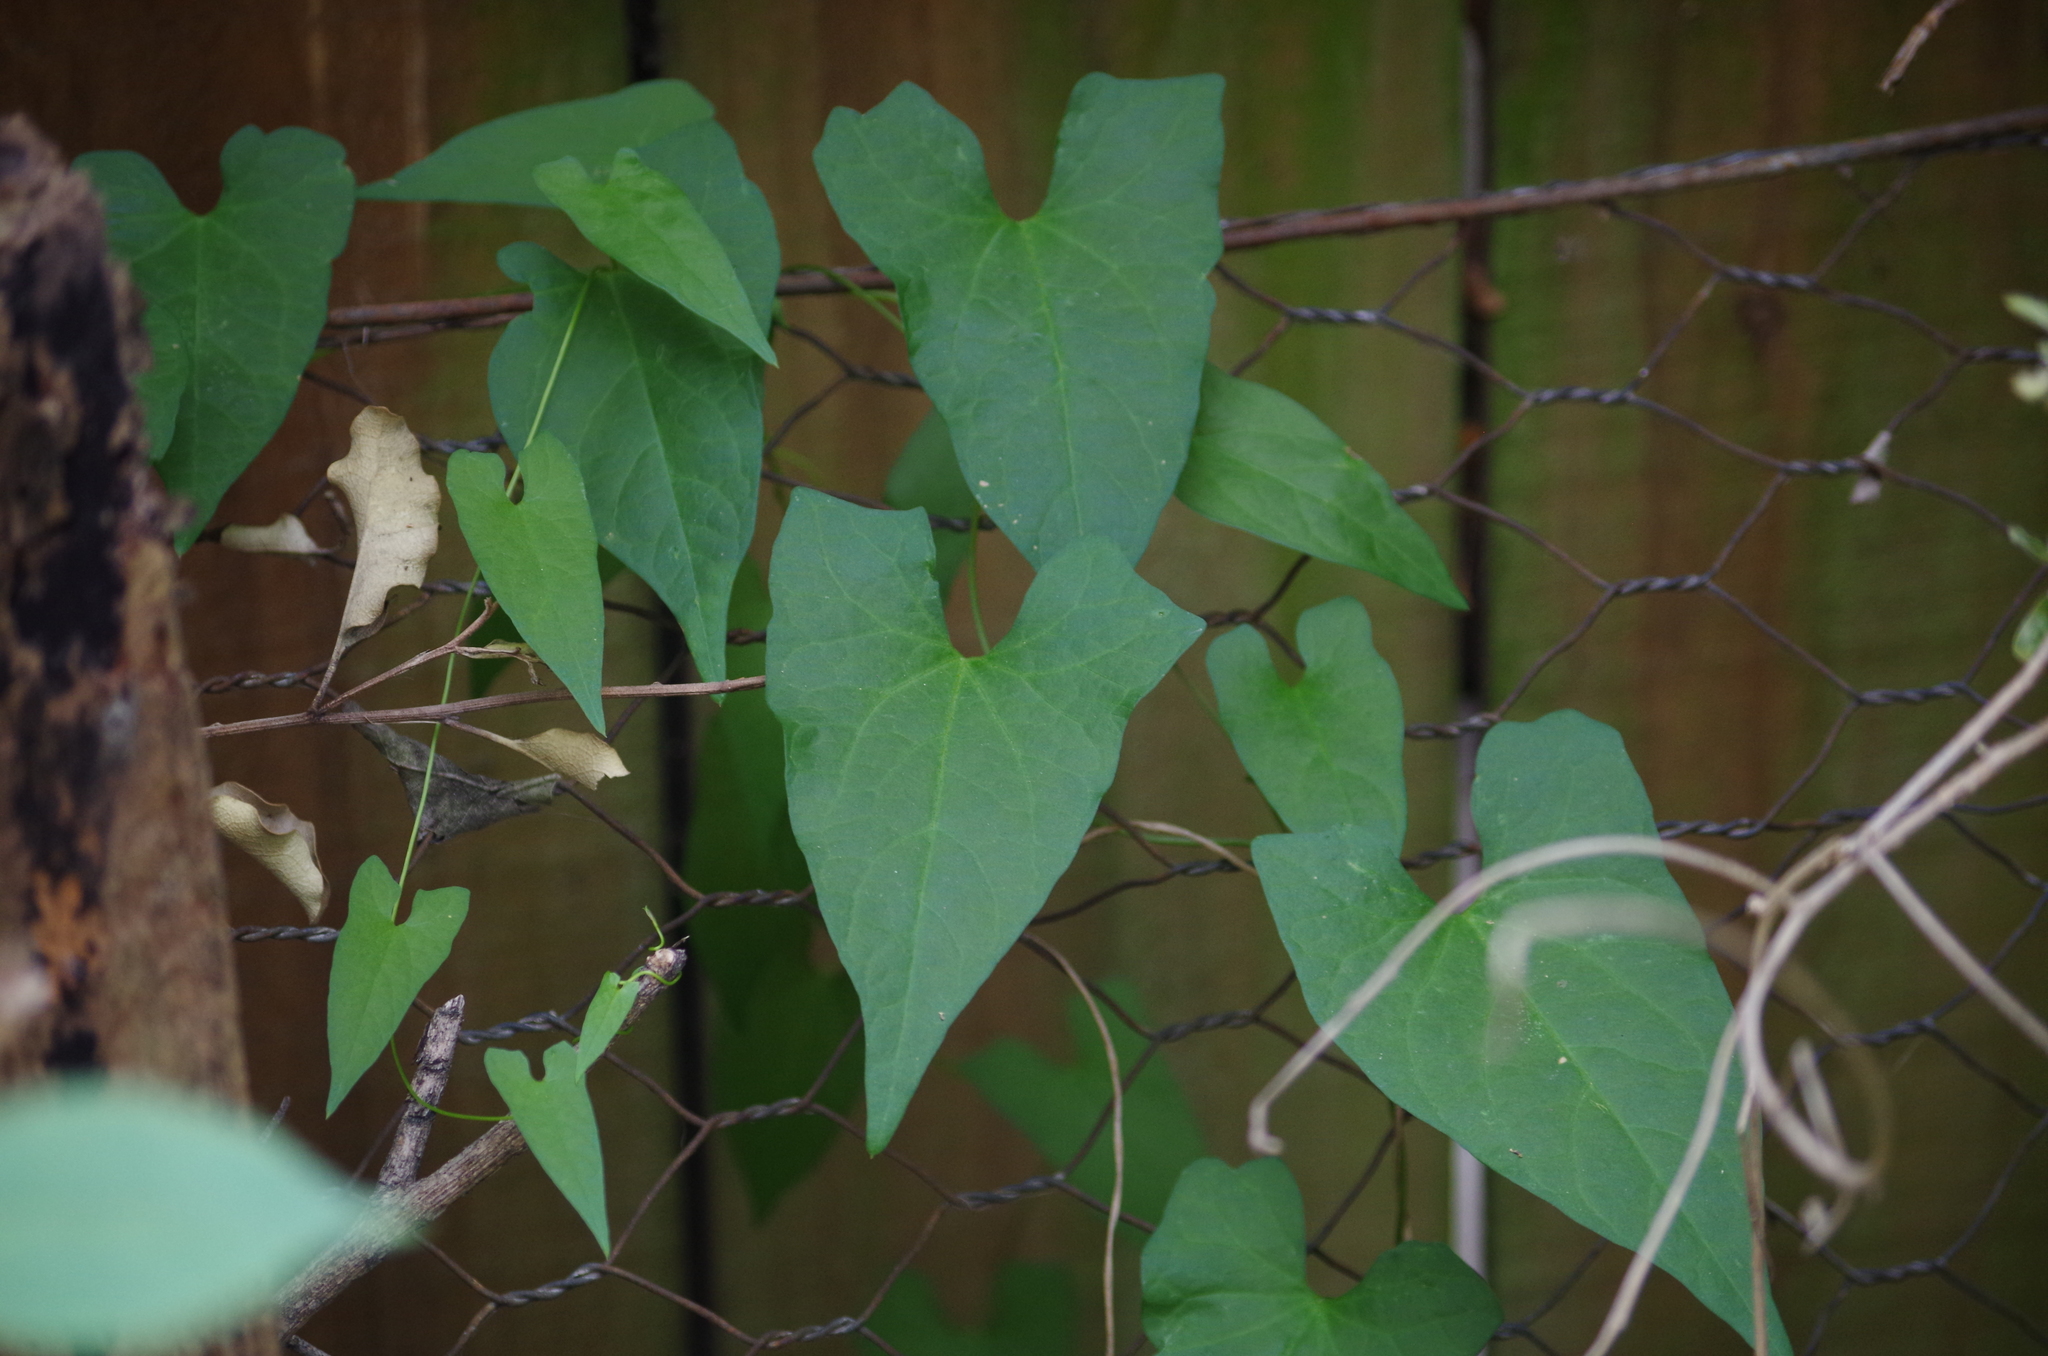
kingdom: Plantae
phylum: Tracheophyta
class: Magnoliopsida
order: Solanales
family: Convolvulaceae
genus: Calystegia
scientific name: Calystegia silvatica
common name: Large bindweed
